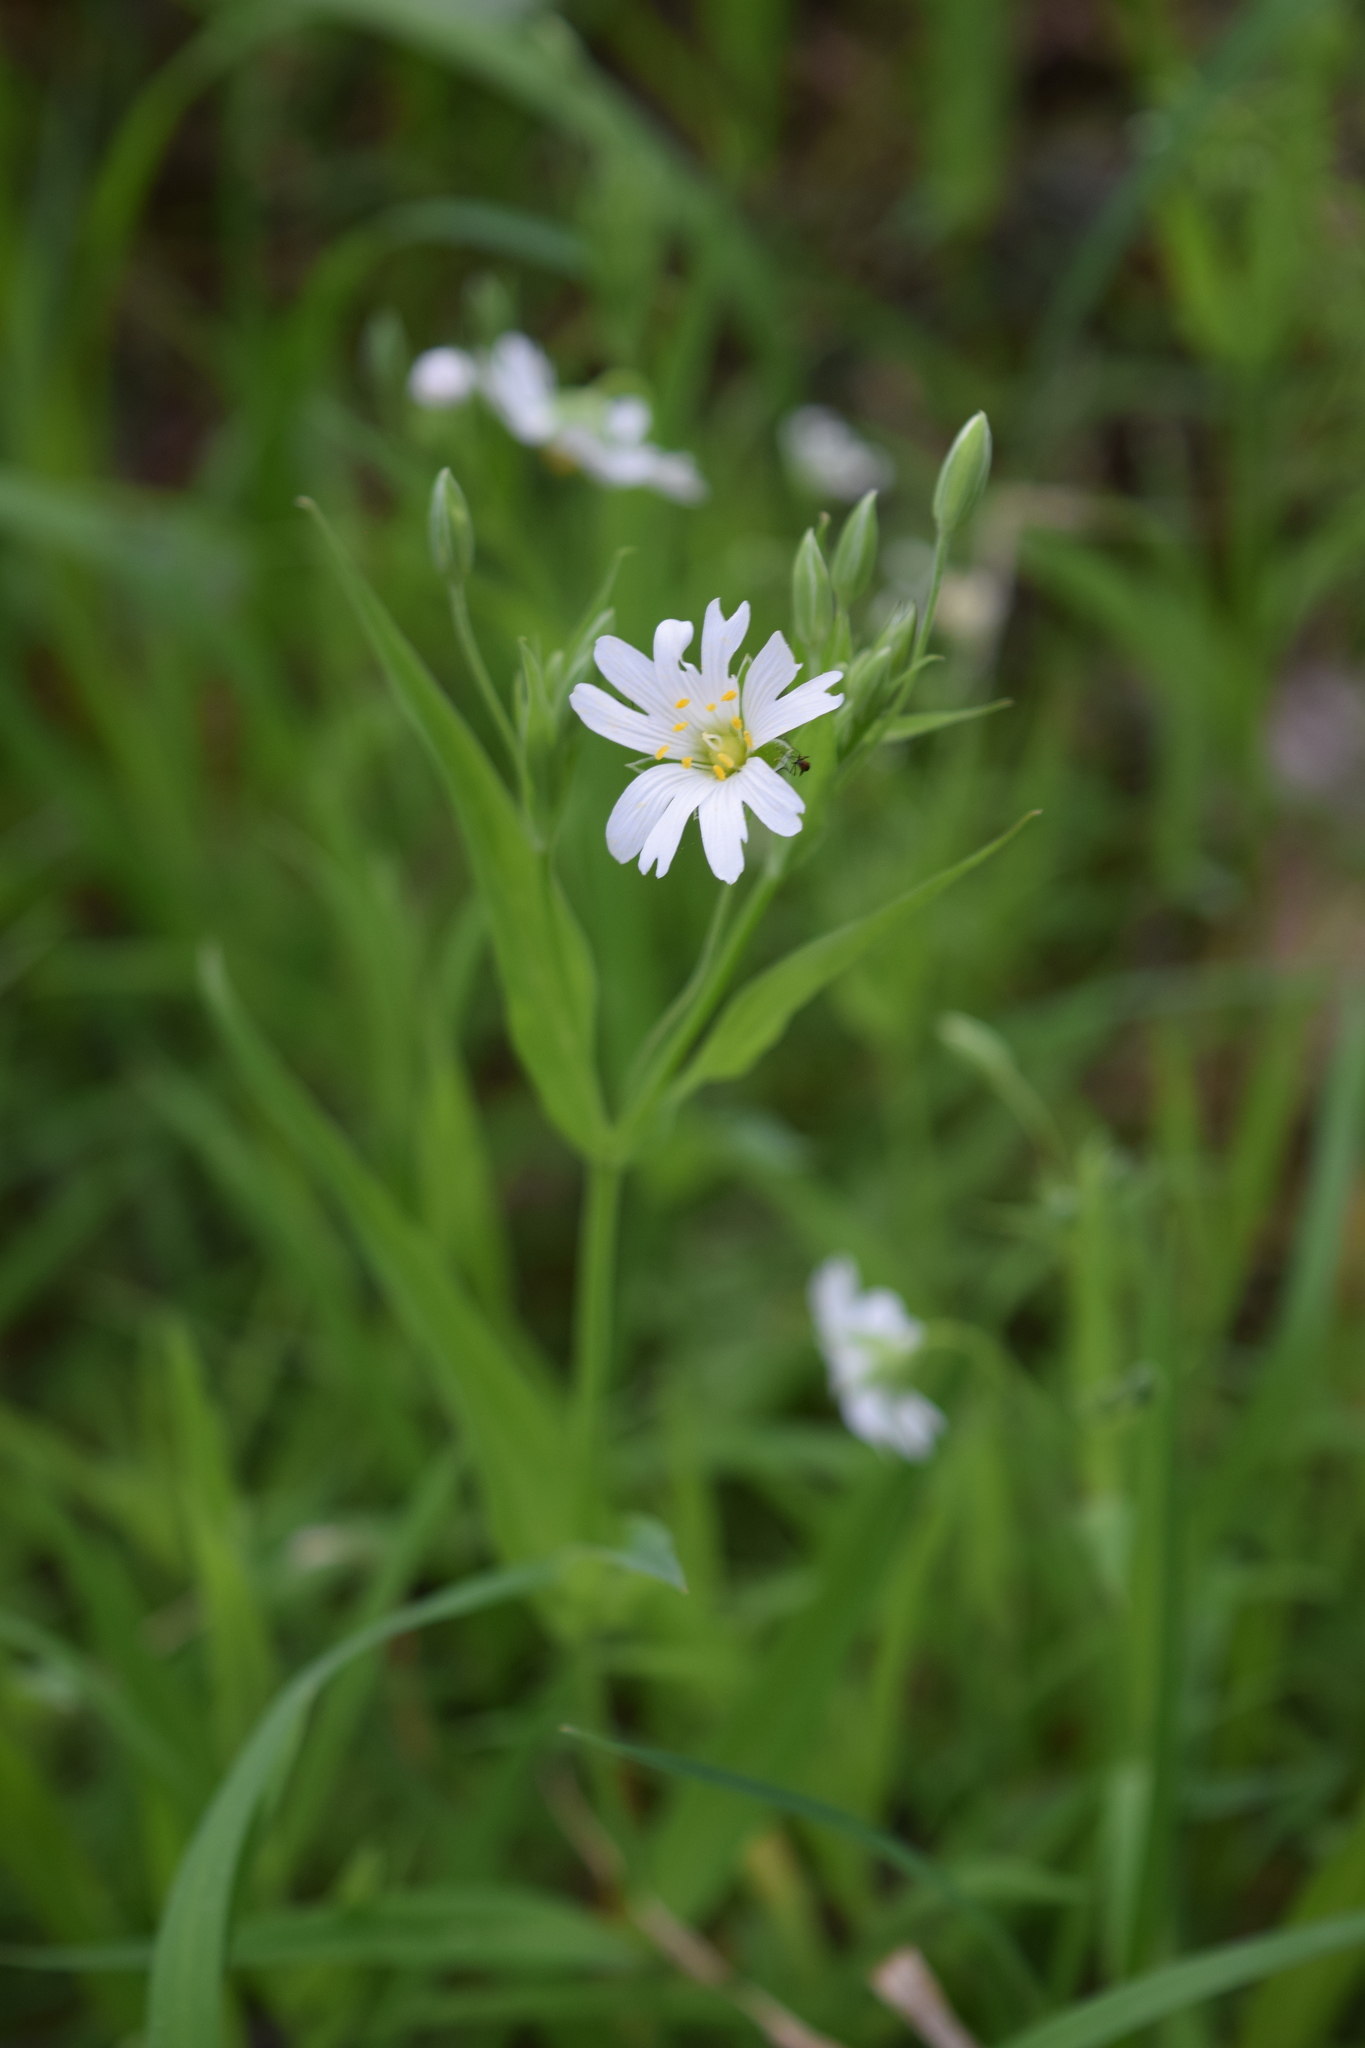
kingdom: Plantae
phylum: Tracheophyta
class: Magnoliopsida
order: Caryophyllales
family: Caryophyllaceae
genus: Rabelera
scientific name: Rabelera holostea
